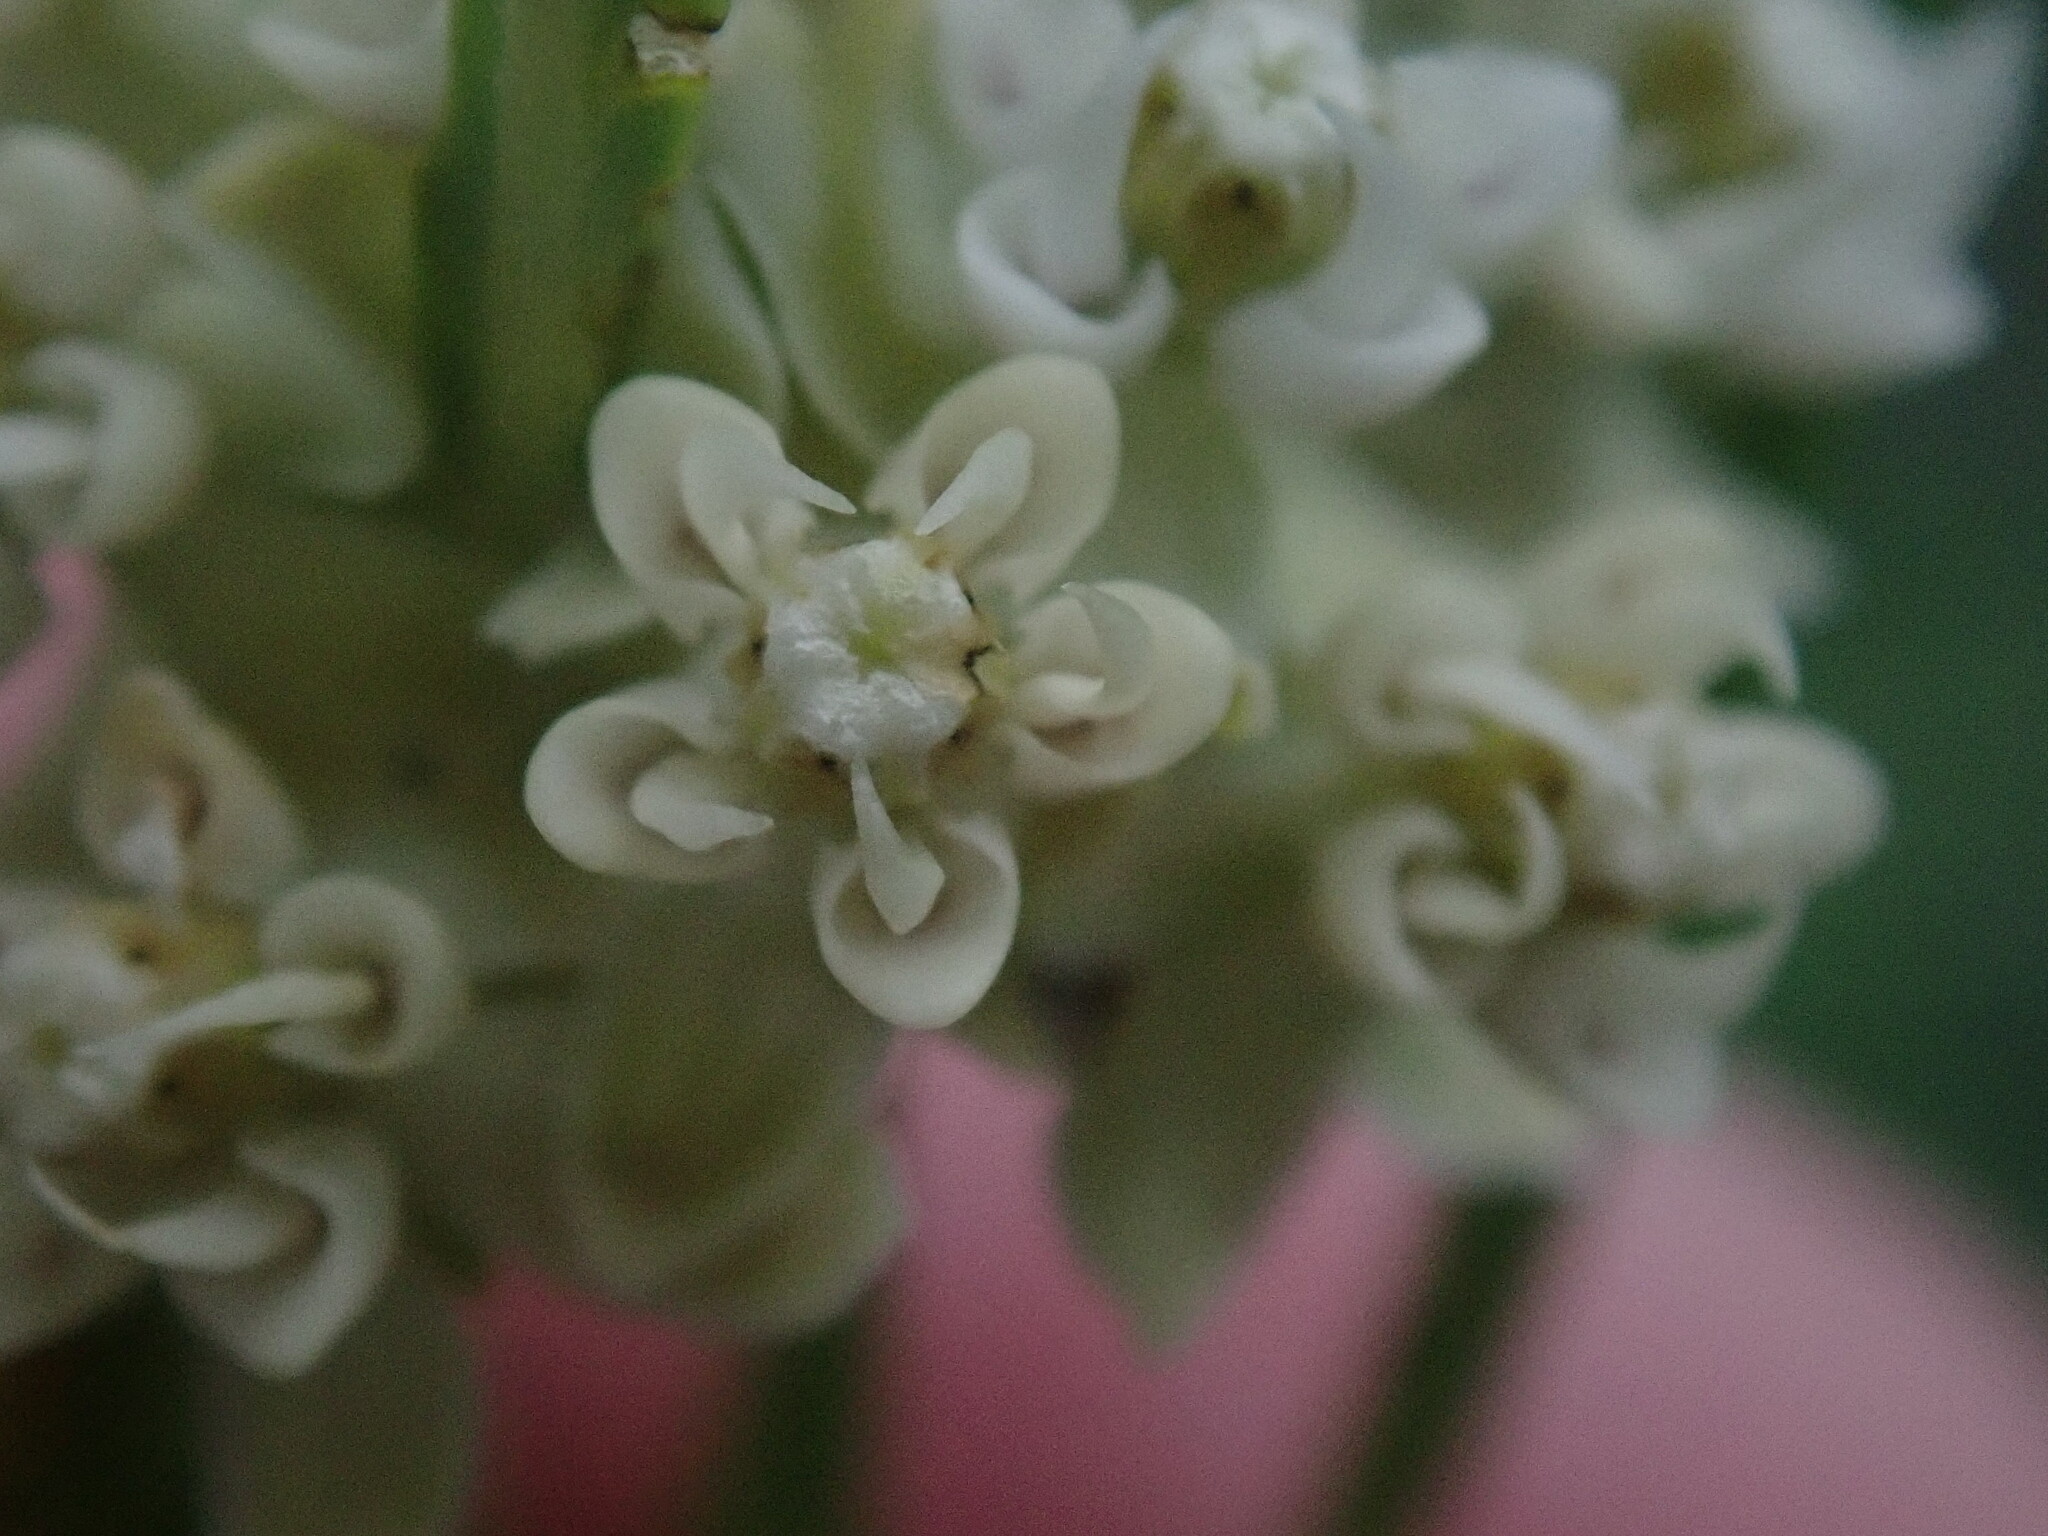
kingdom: Plantae
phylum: Tracheophyta
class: Magnoliopsida
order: Gentianales
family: Apocynaceae
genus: Asclepias
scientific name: Asclepias subverticillata
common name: Horsetail milkweed
